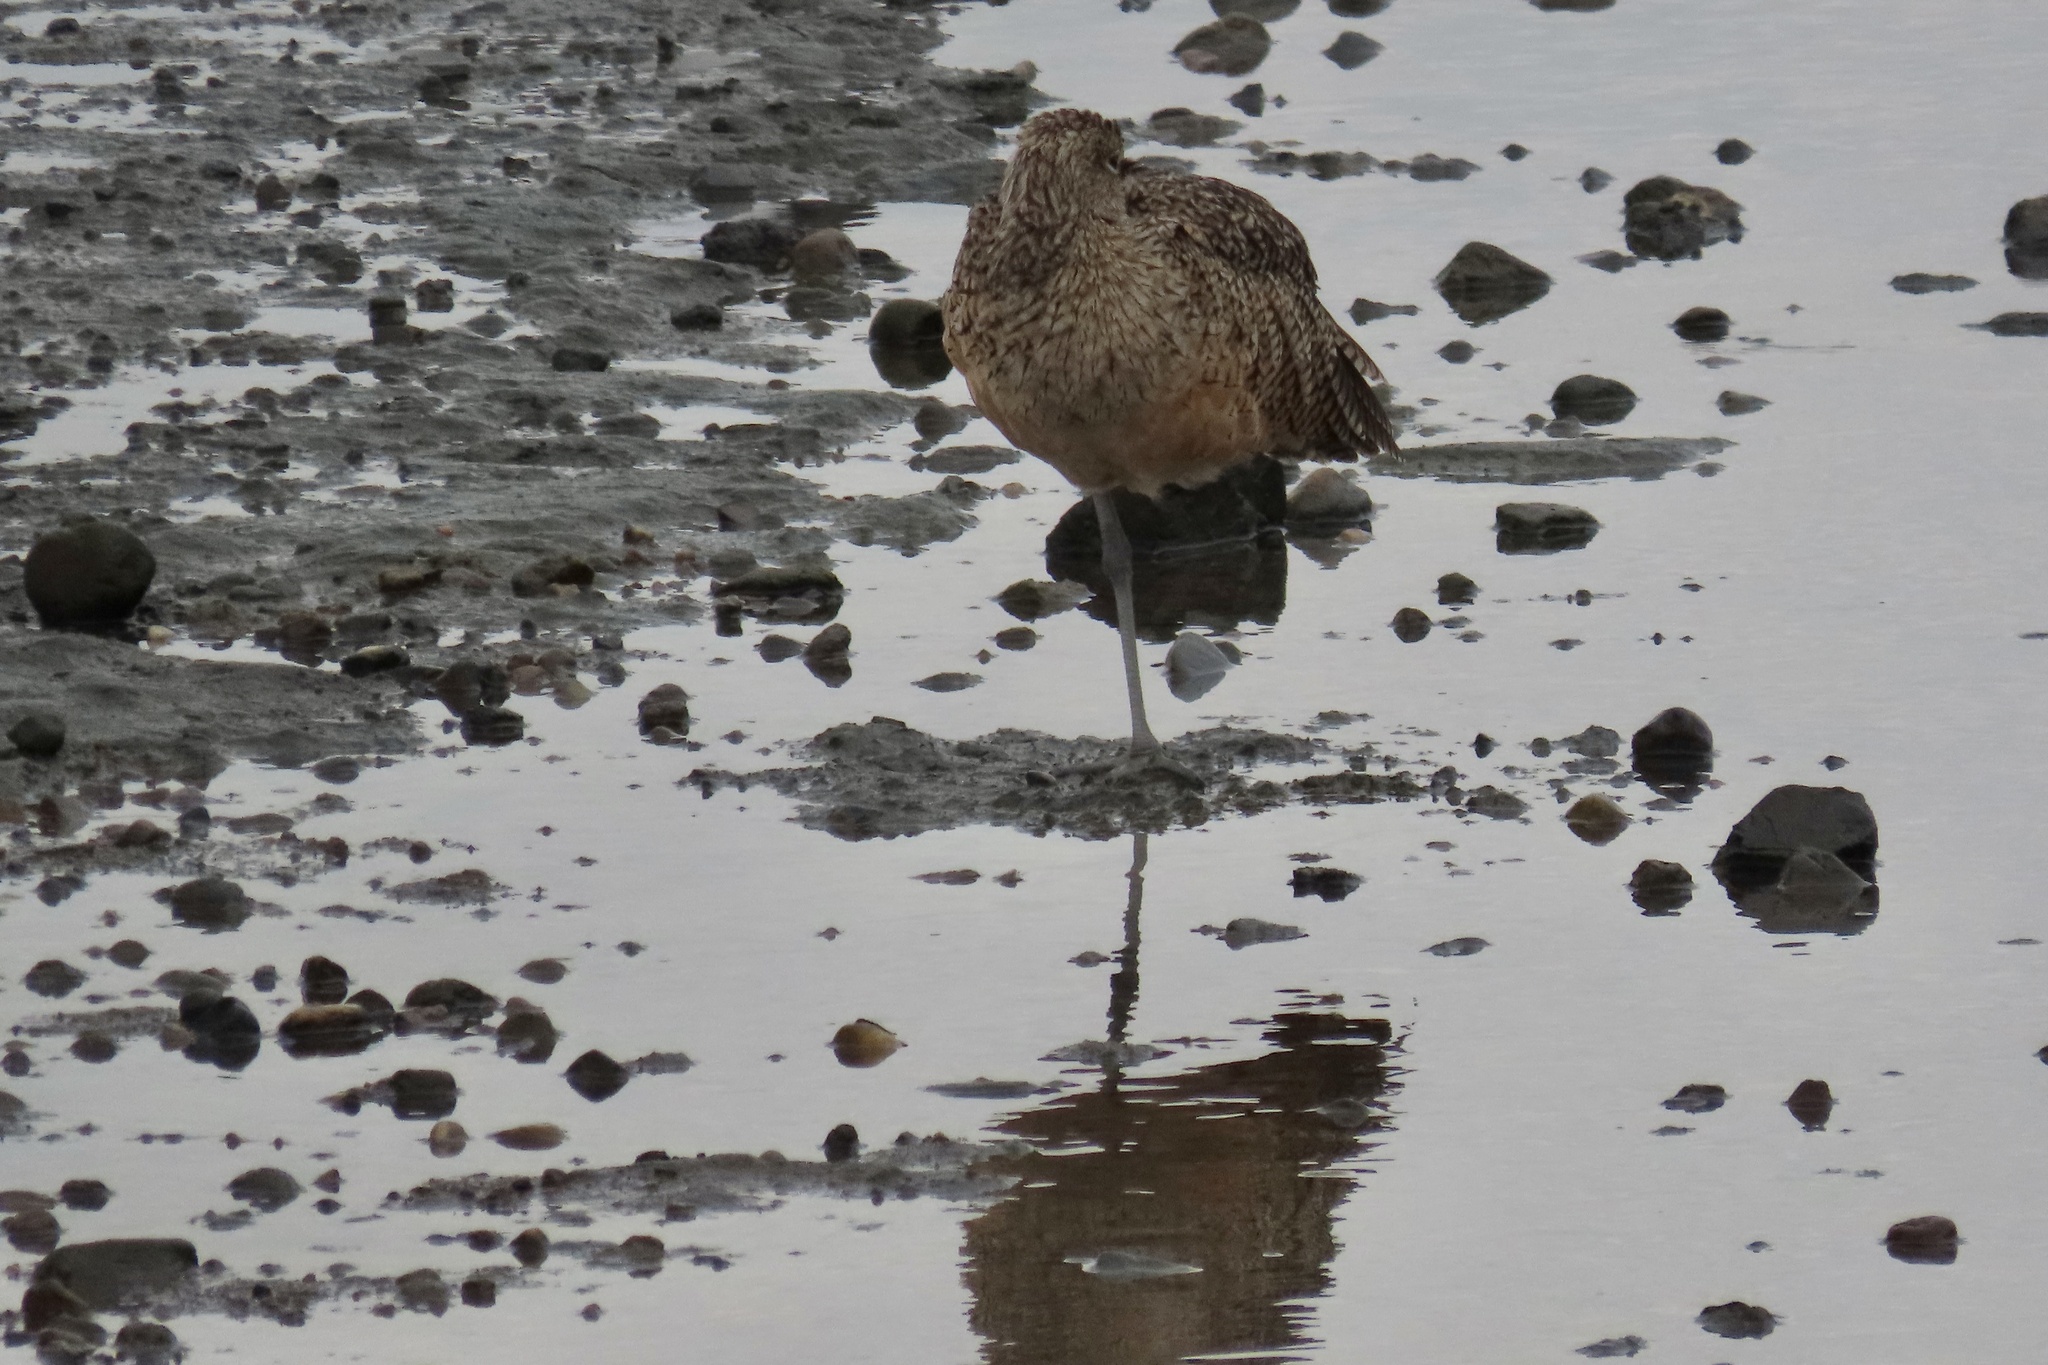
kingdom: Animalia
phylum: Chordata
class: Aves
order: Charadriiformes
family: Scolopacidae
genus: Limosa
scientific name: Limosa fedoa
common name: Marbled godwit
